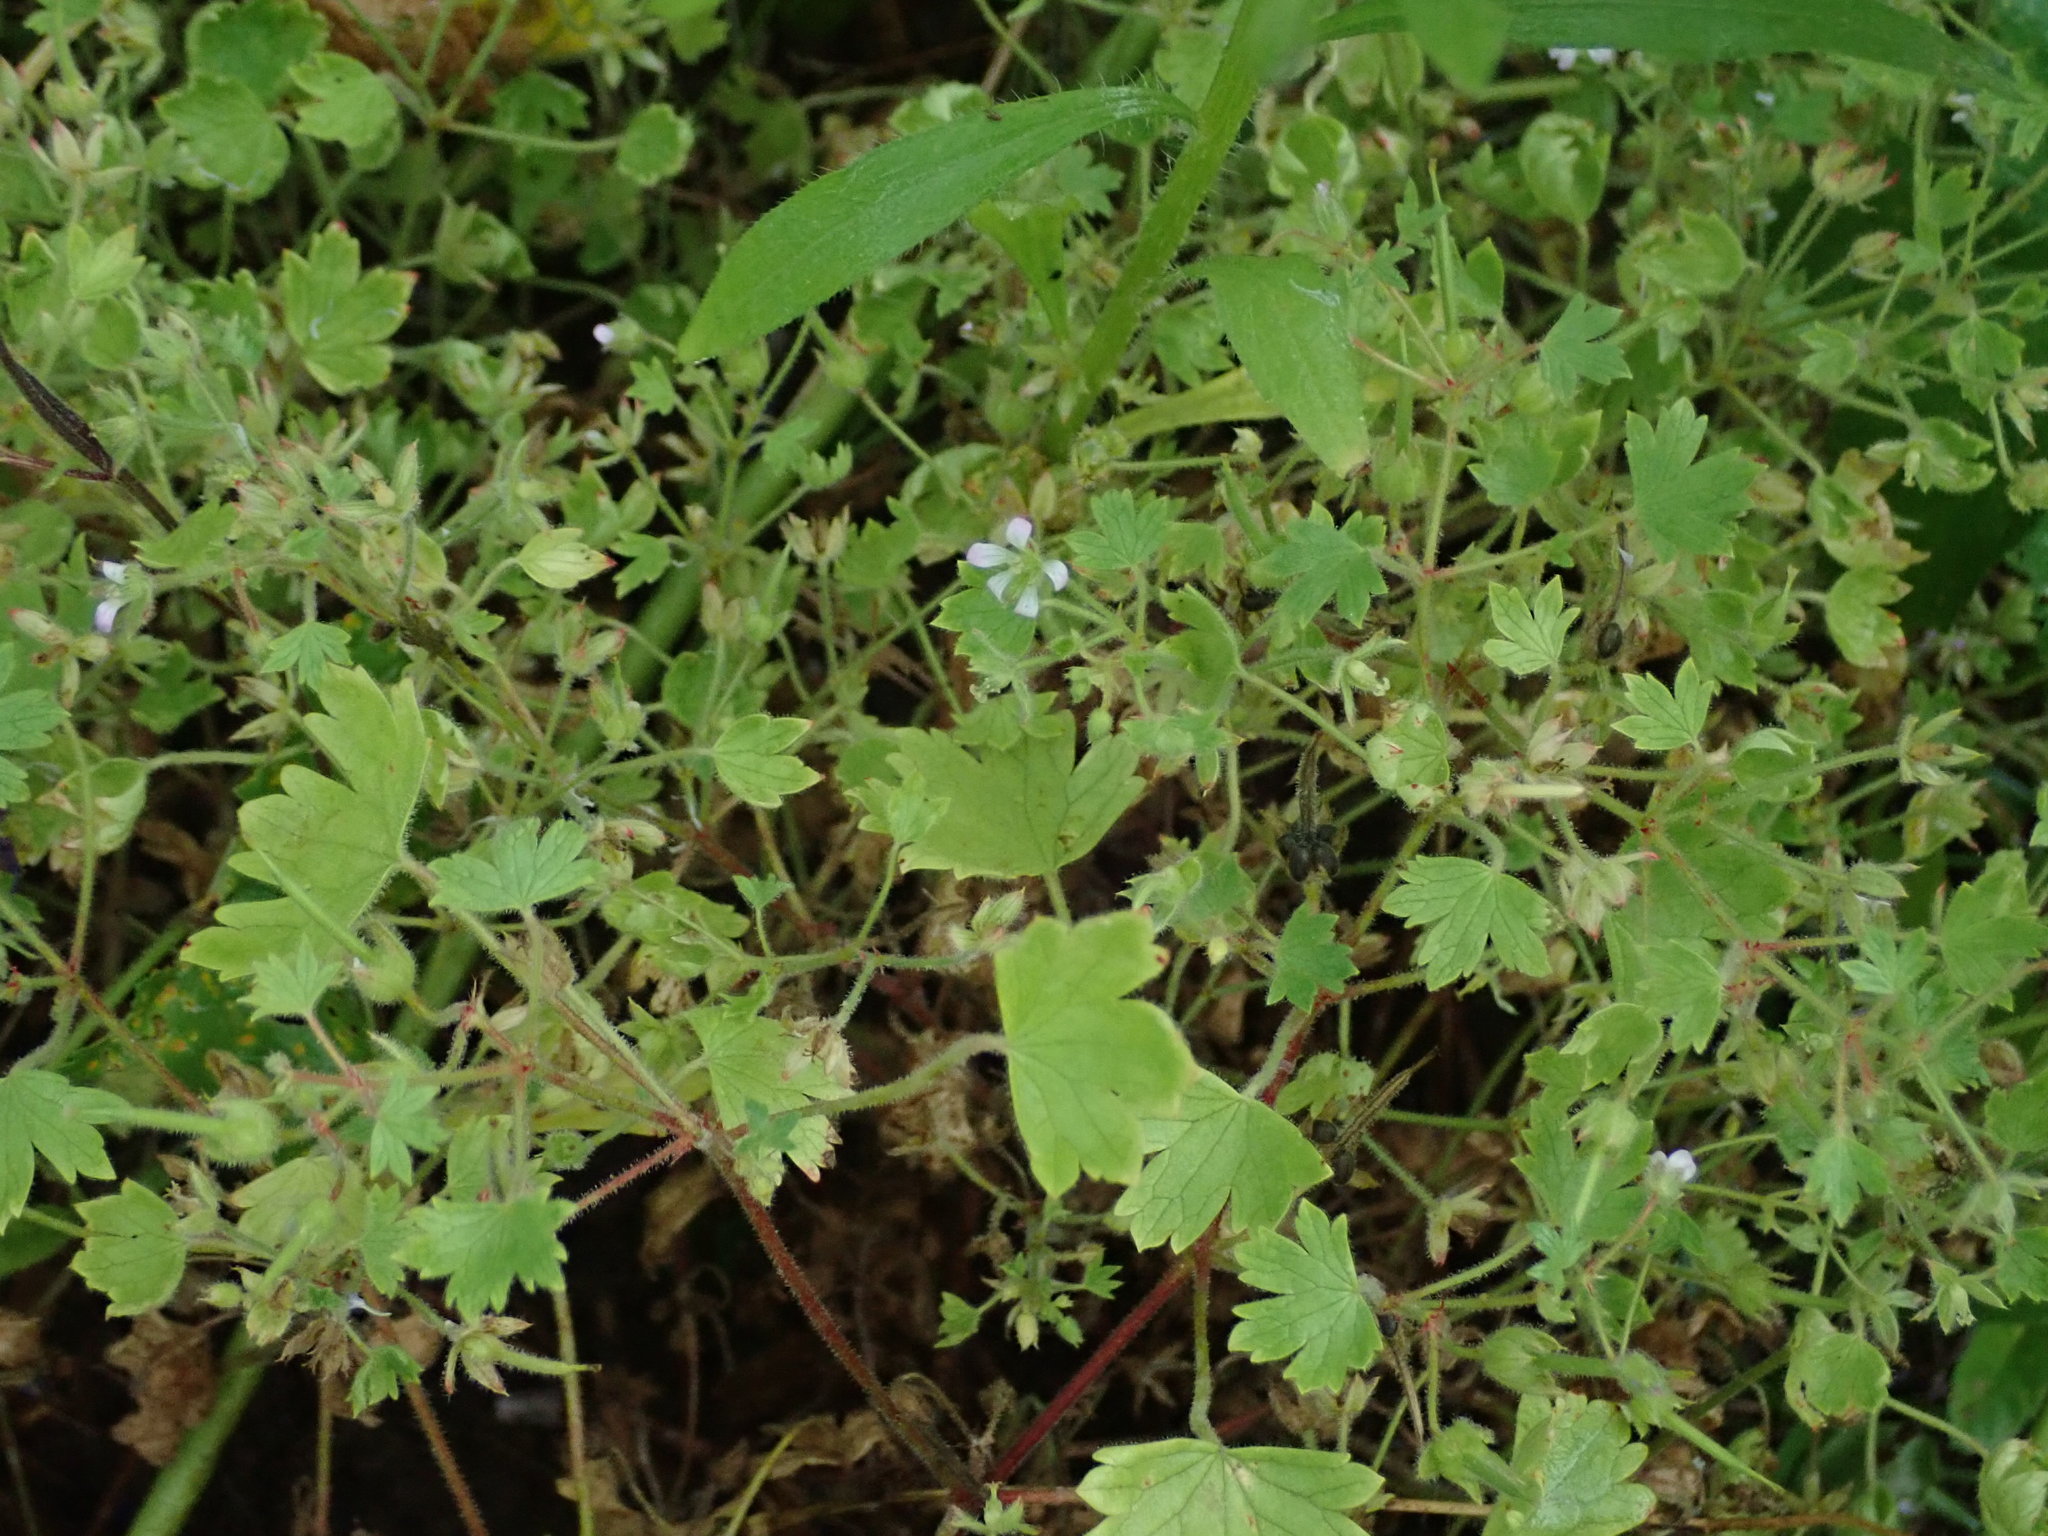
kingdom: Plantae
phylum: Tracheophyta
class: Magnoliopsida
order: Geraniales
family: Geraniaceae
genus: Geranium
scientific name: Geranium rotundifolium
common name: Round-leaved crane's-bill
